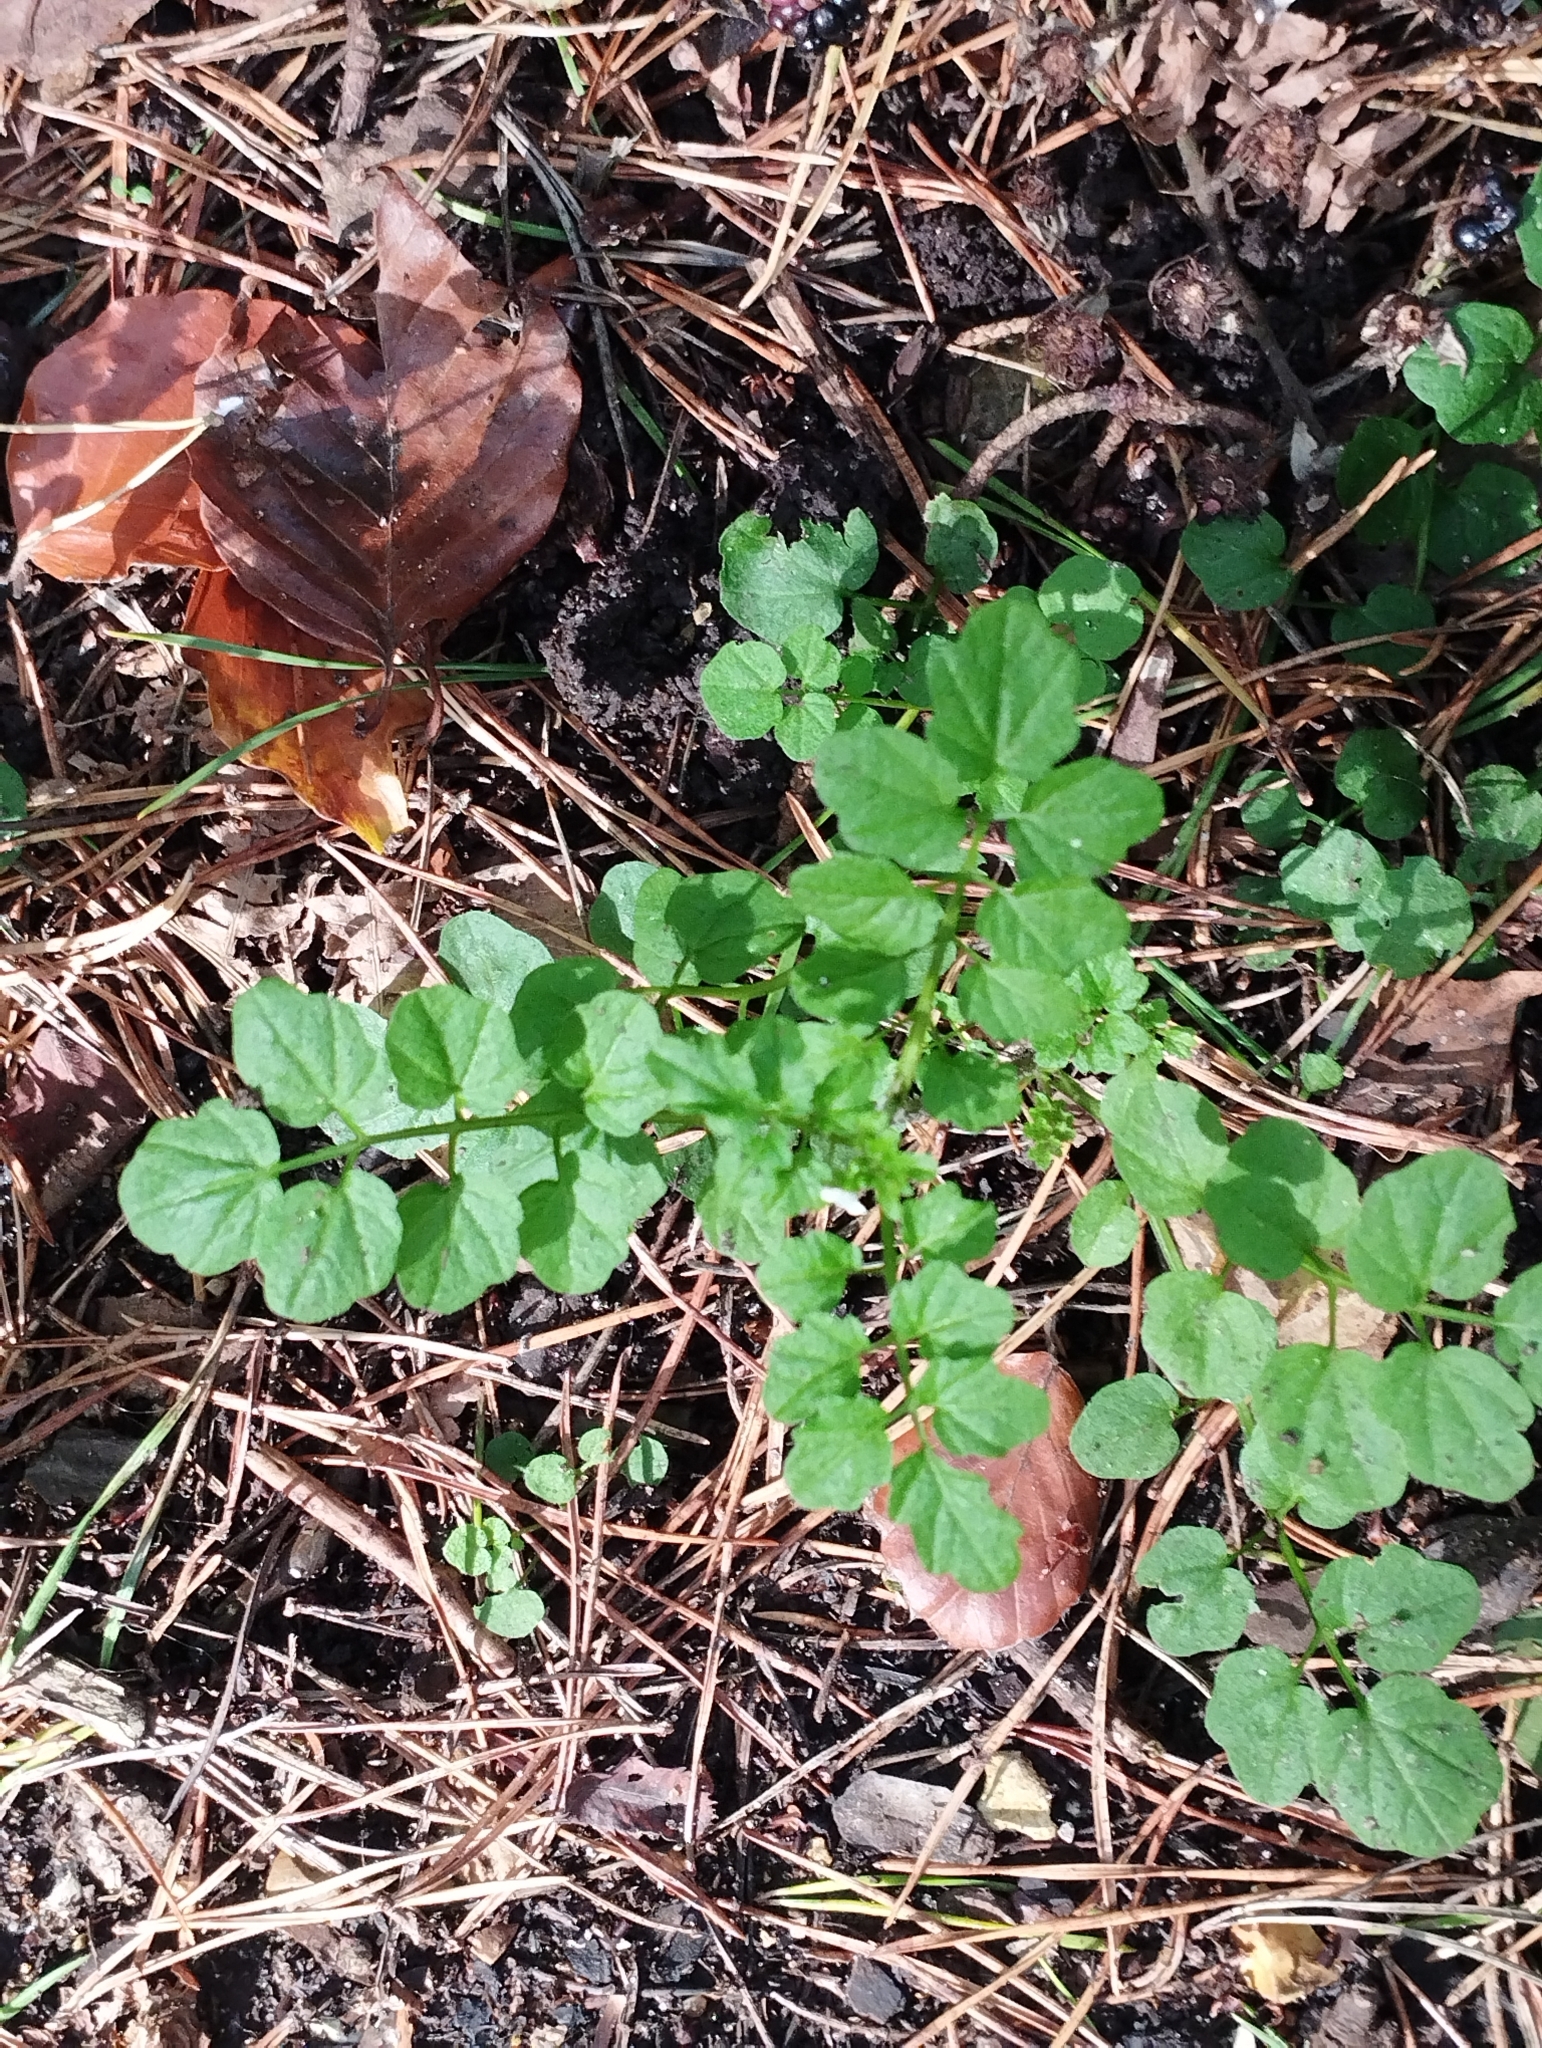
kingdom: Plantae
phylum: Tracheophyta
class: Magnoliopsida
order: Brassicales
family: Brassicaceae
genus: Cardamine
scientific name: Cardamine flexuosa
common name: Woodland bittercress
